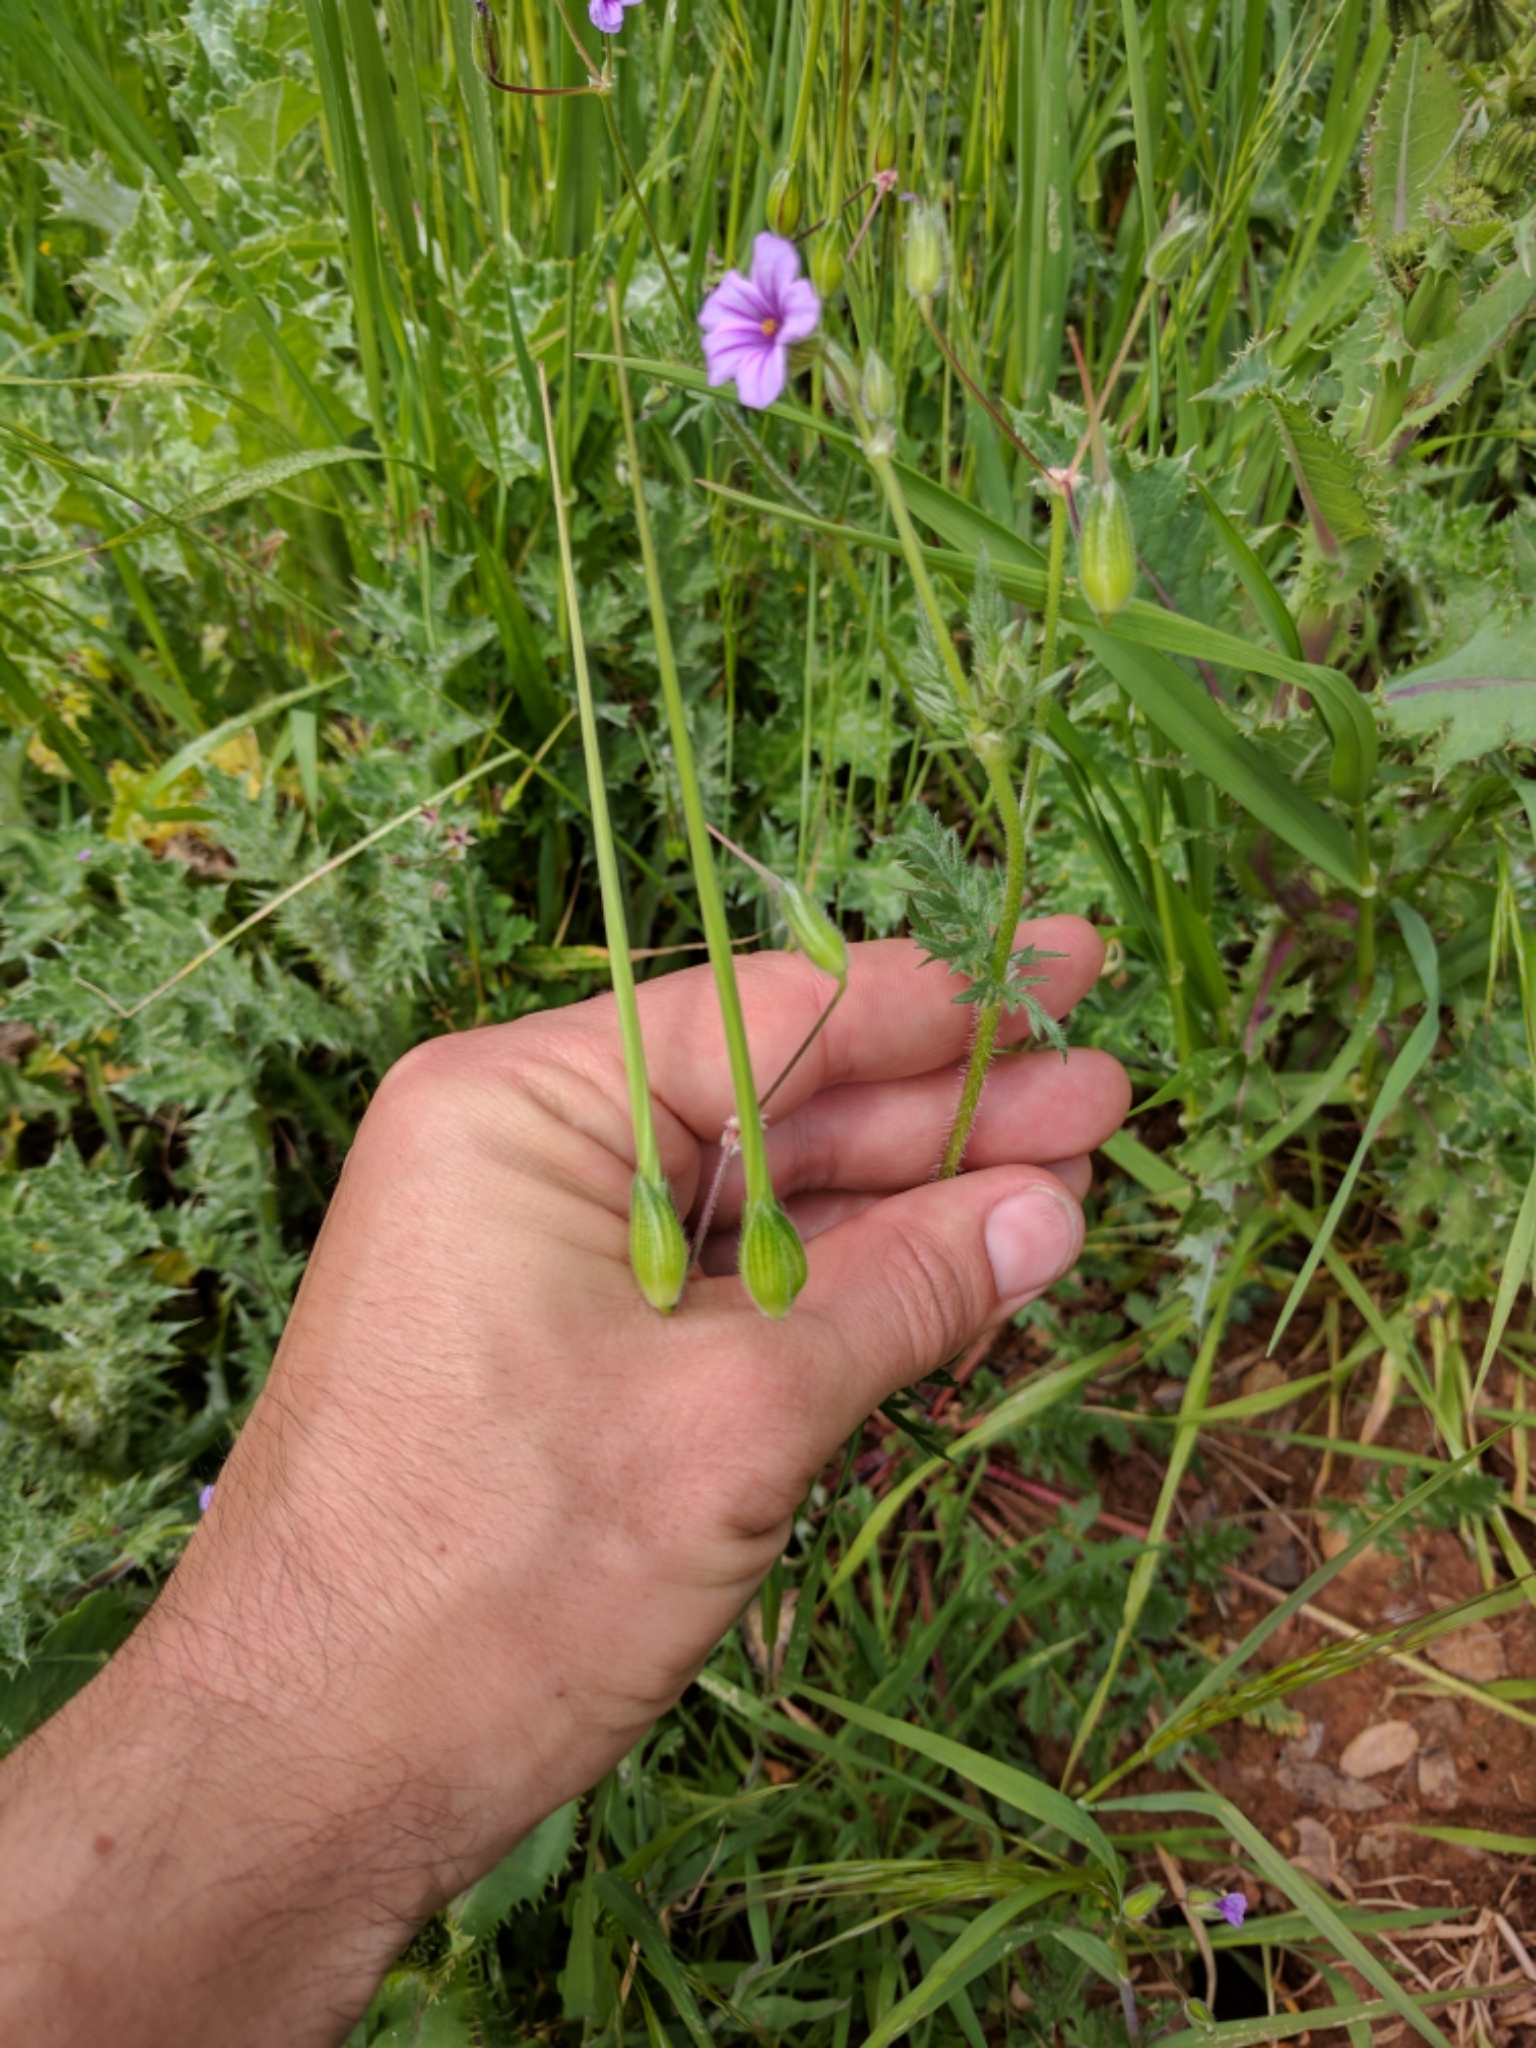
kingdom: Plantae
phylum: Tracheophyta
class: Magnoliopsida
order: Geraniales
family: Geraniaceae
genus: Erodium
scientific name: Erodium botrys
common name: Mediterranean stork's-bill
